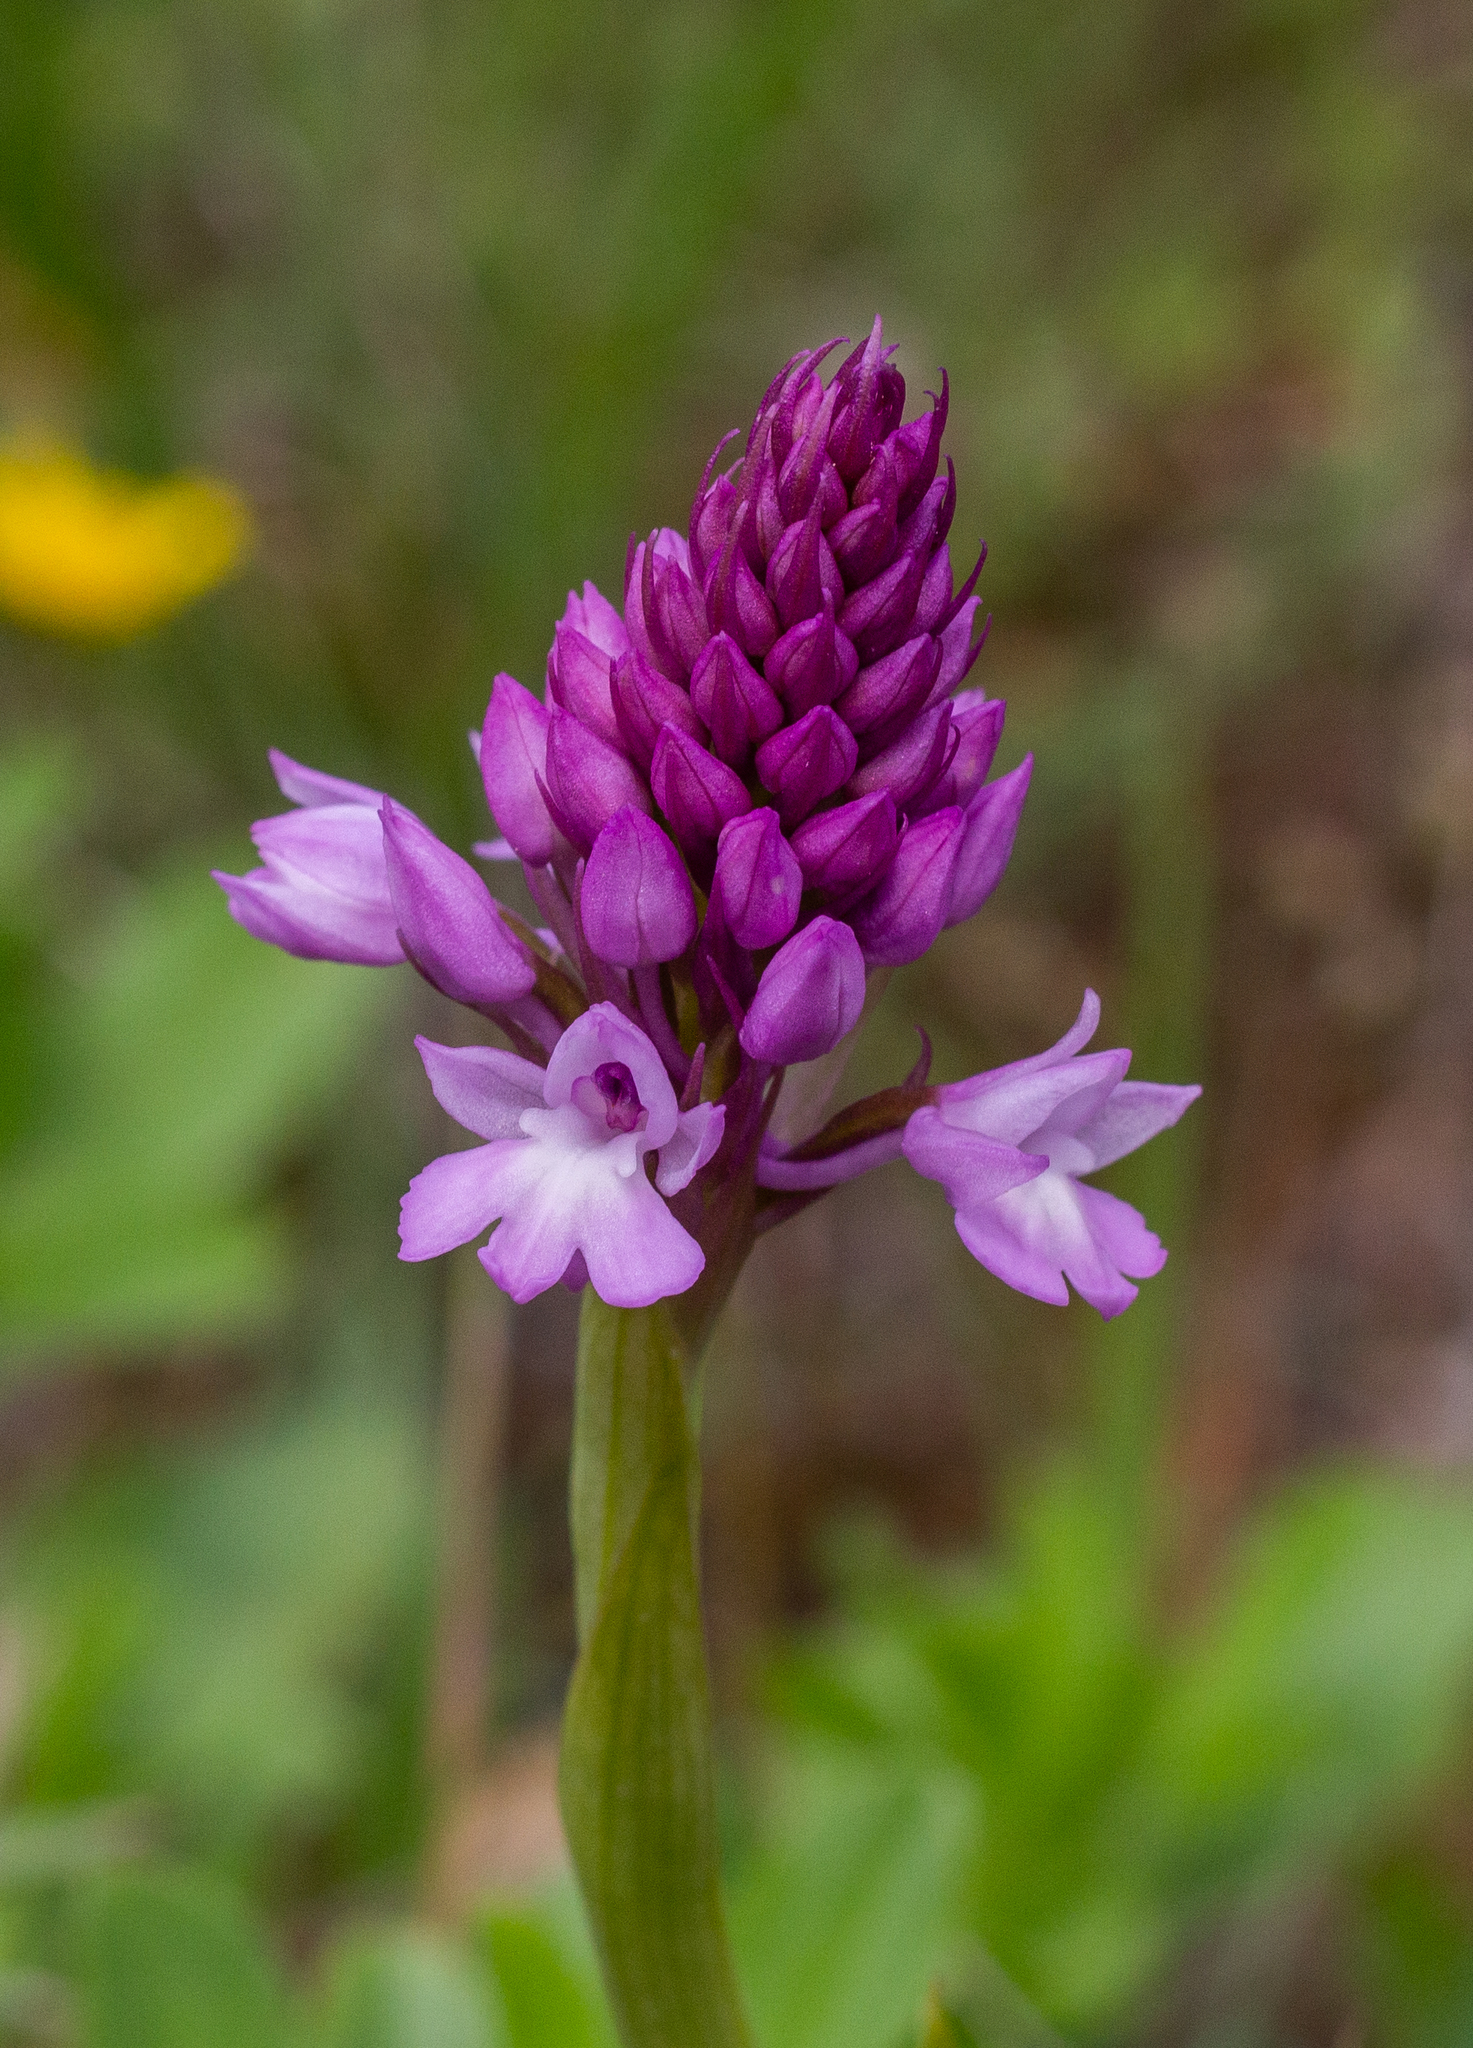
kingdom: Plantae
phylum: Tracheophyta
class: Liliopsida
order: Asparagales
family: Orchidaceae
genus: Anacamptis
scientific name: Anacamptis pyramidalis
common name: Pyramidal orchid
